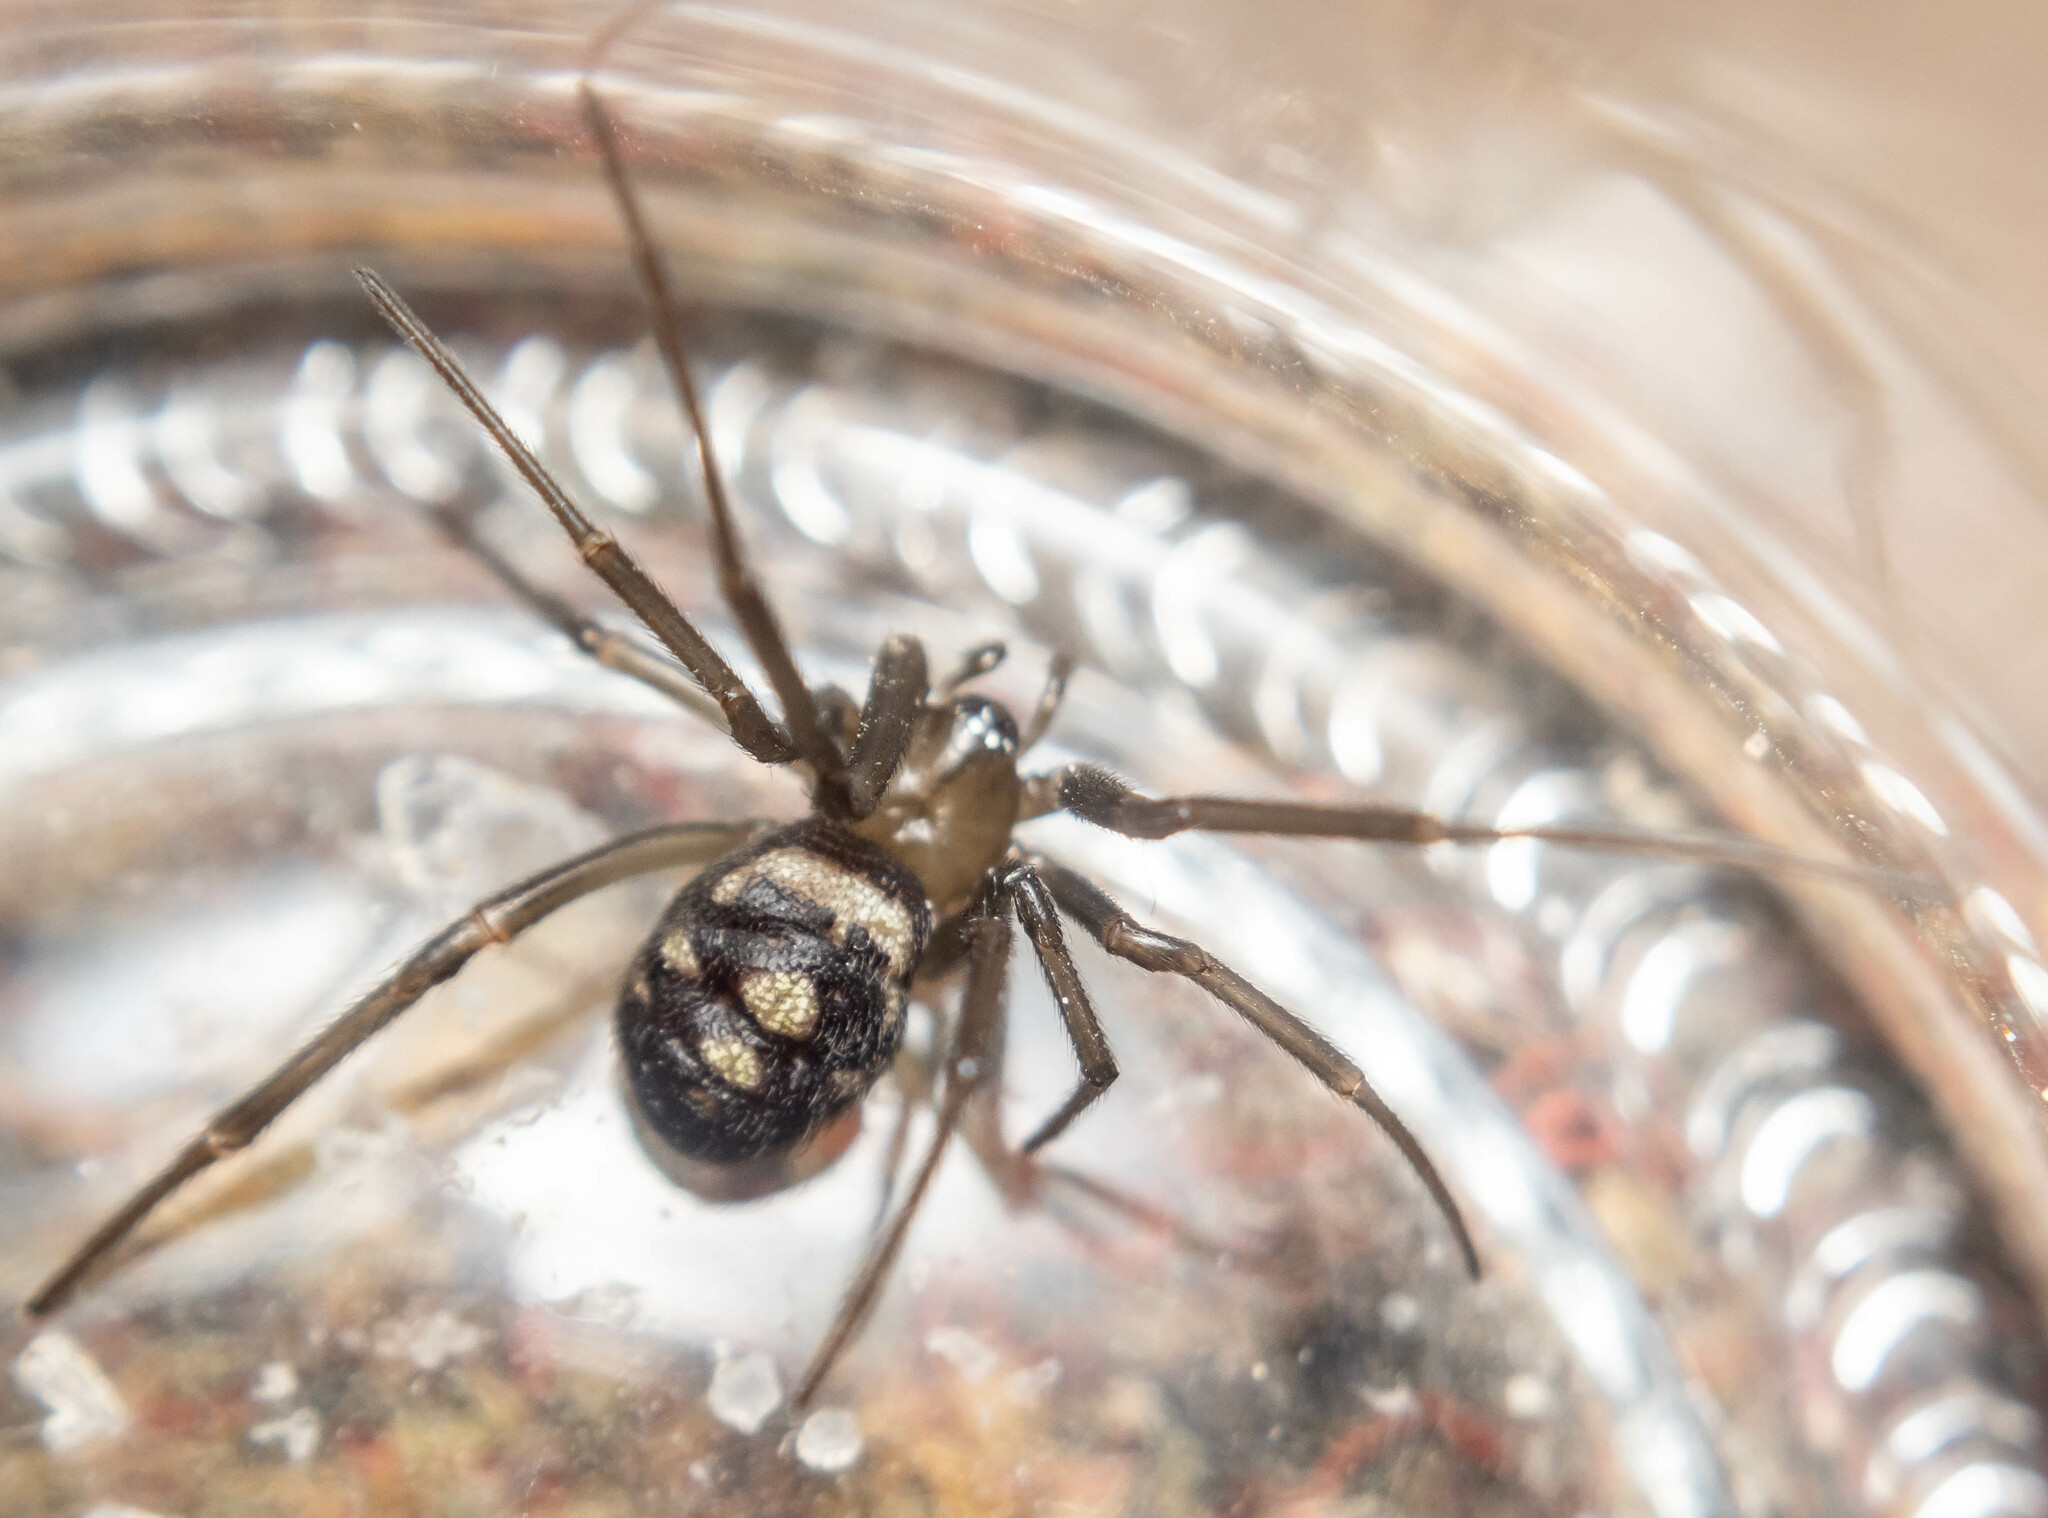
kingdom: Animalia
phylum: Arthropoda
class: Arachnida
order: Araneae
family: Theridiidae
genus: Steatoda
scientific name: Steatoda grossa
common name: False black widow
